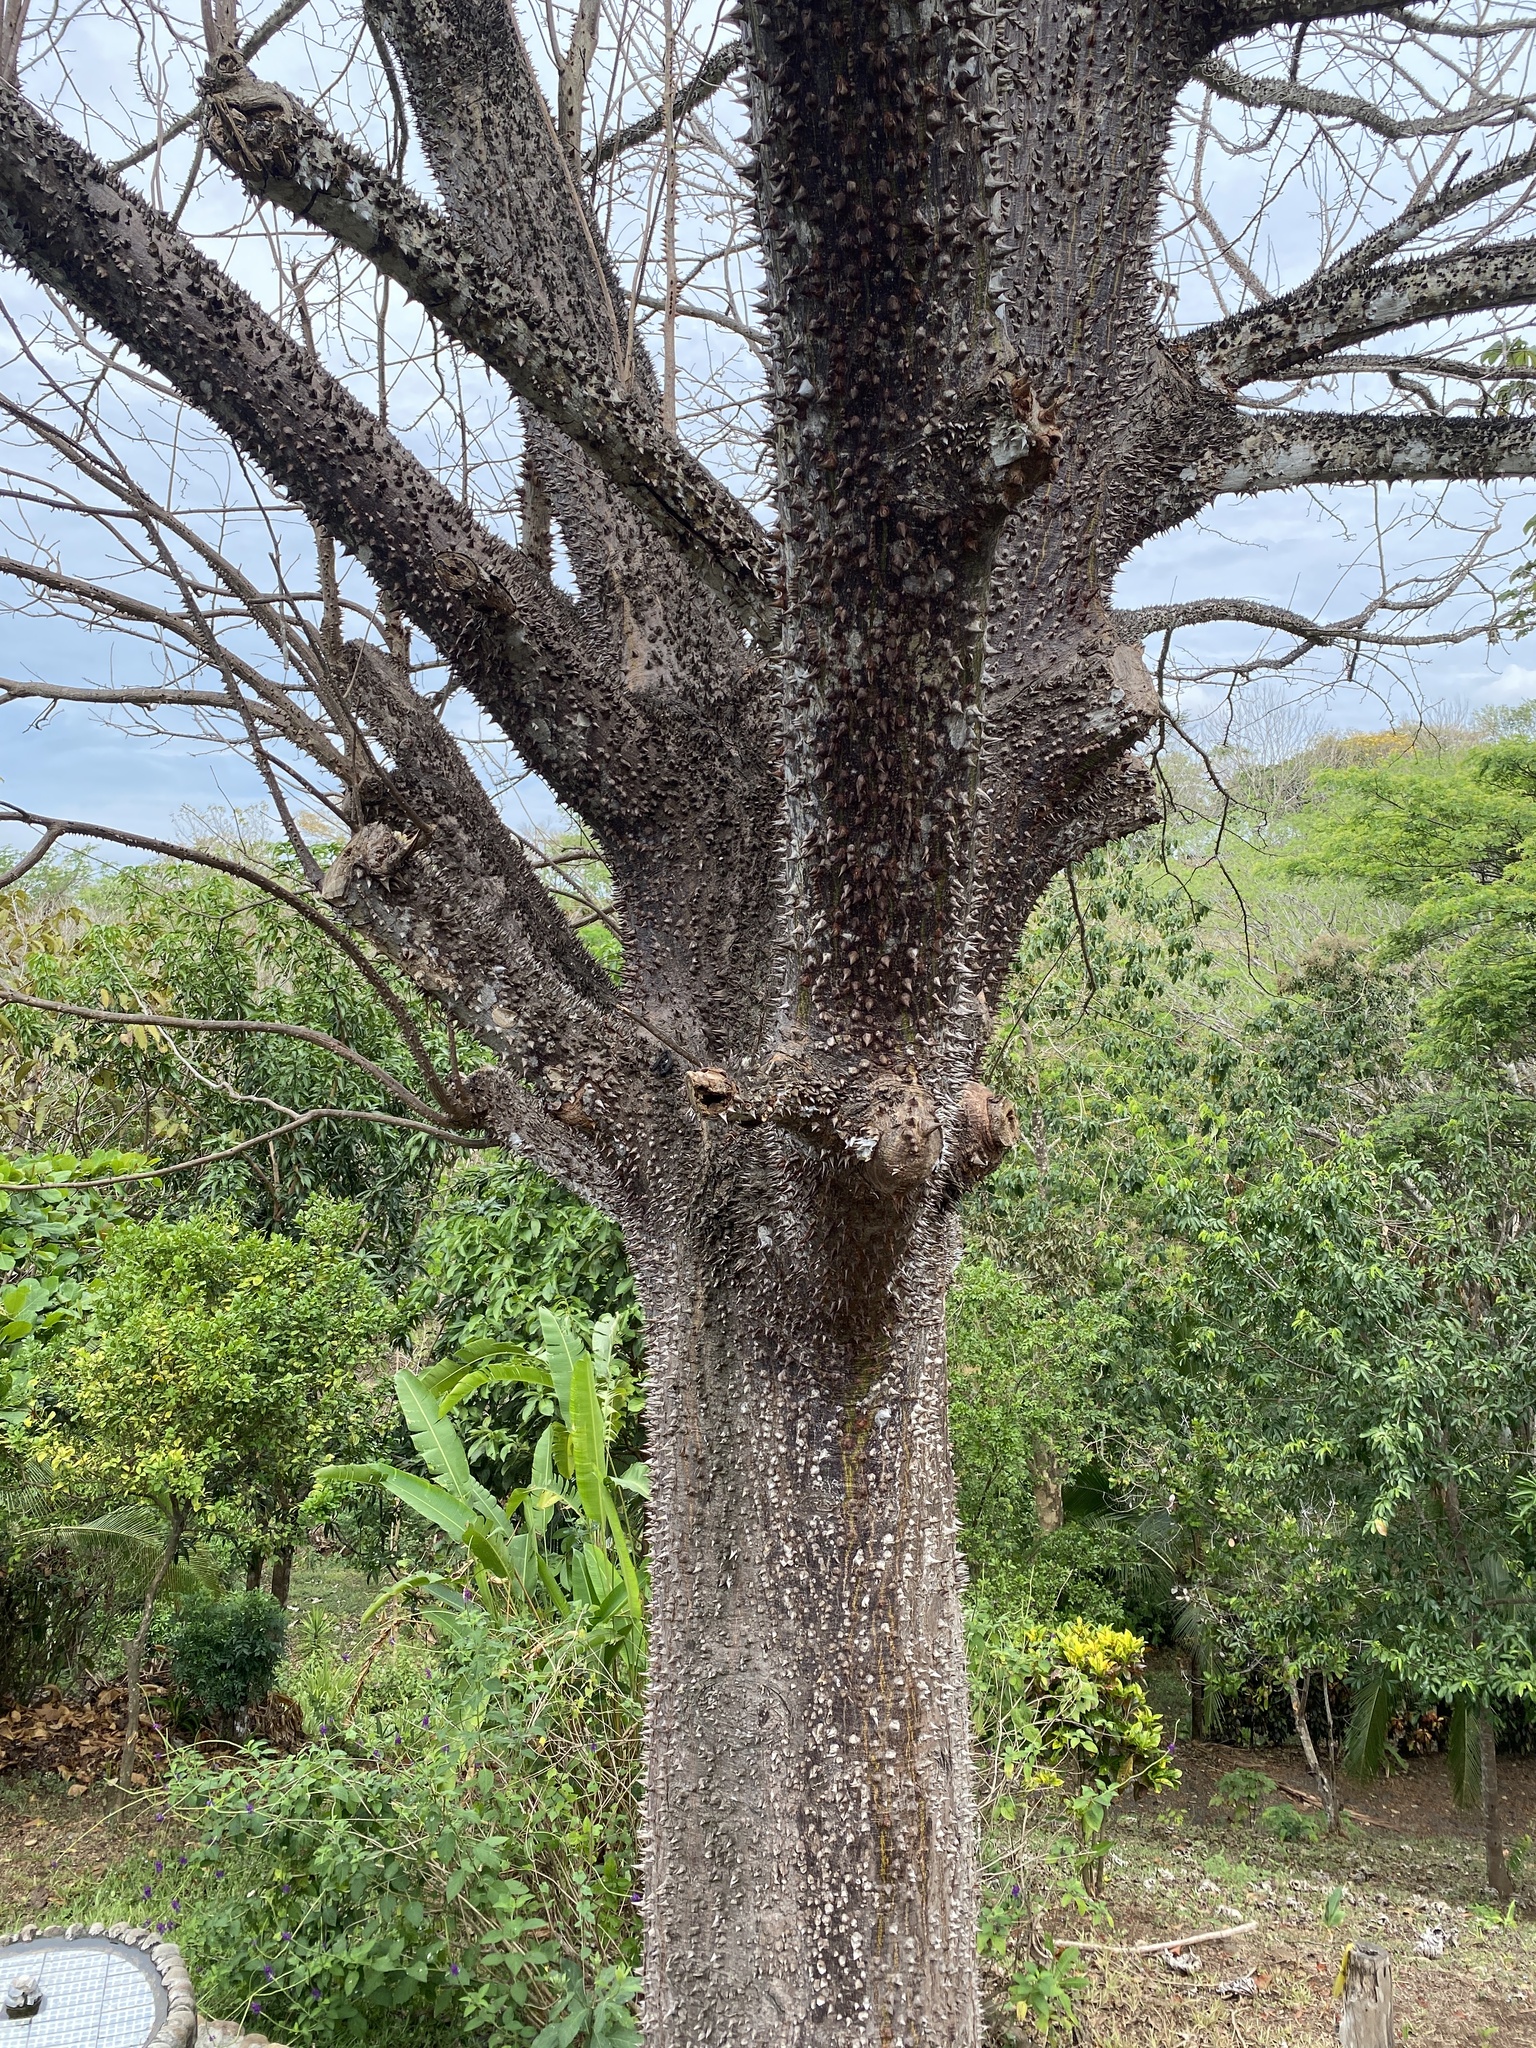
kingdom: Plantae
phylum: Tracheophyta
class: Magnoliopsida
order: Malvales
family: Malvaceae
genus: Pochota
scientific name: Pochota fendleri
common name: Chestnut
